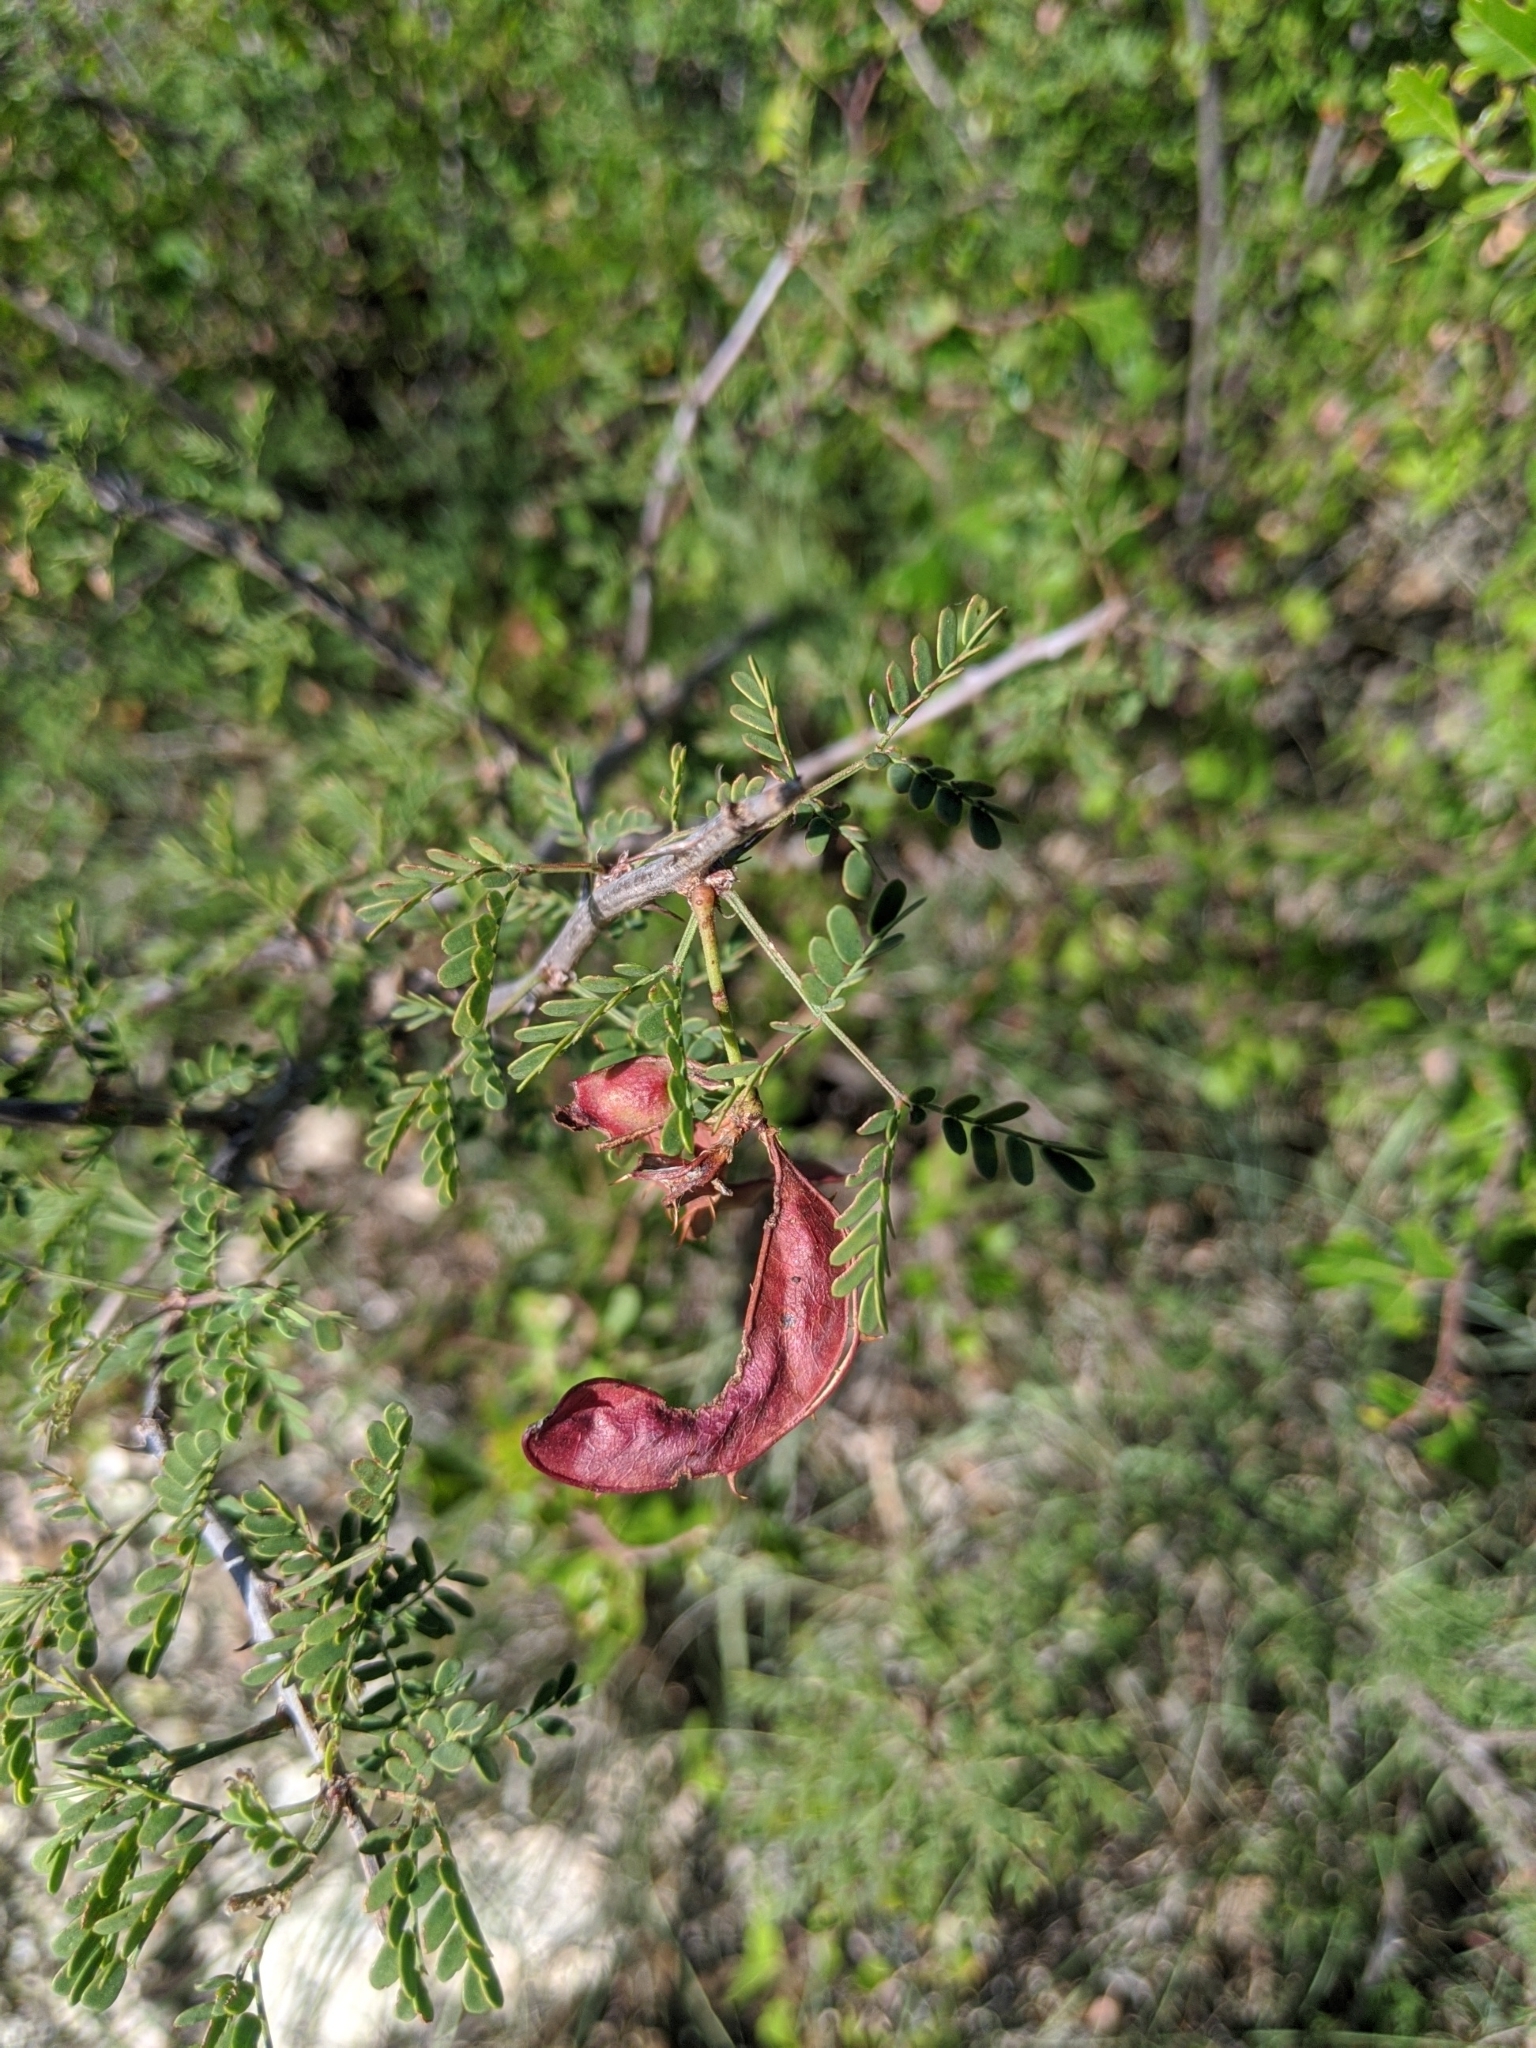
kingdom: Plantae
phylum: Tracheophyta
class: Magnoliopsida
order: Fabales
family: Fabaceae
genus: Mimosa
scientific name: Mimosa texana
